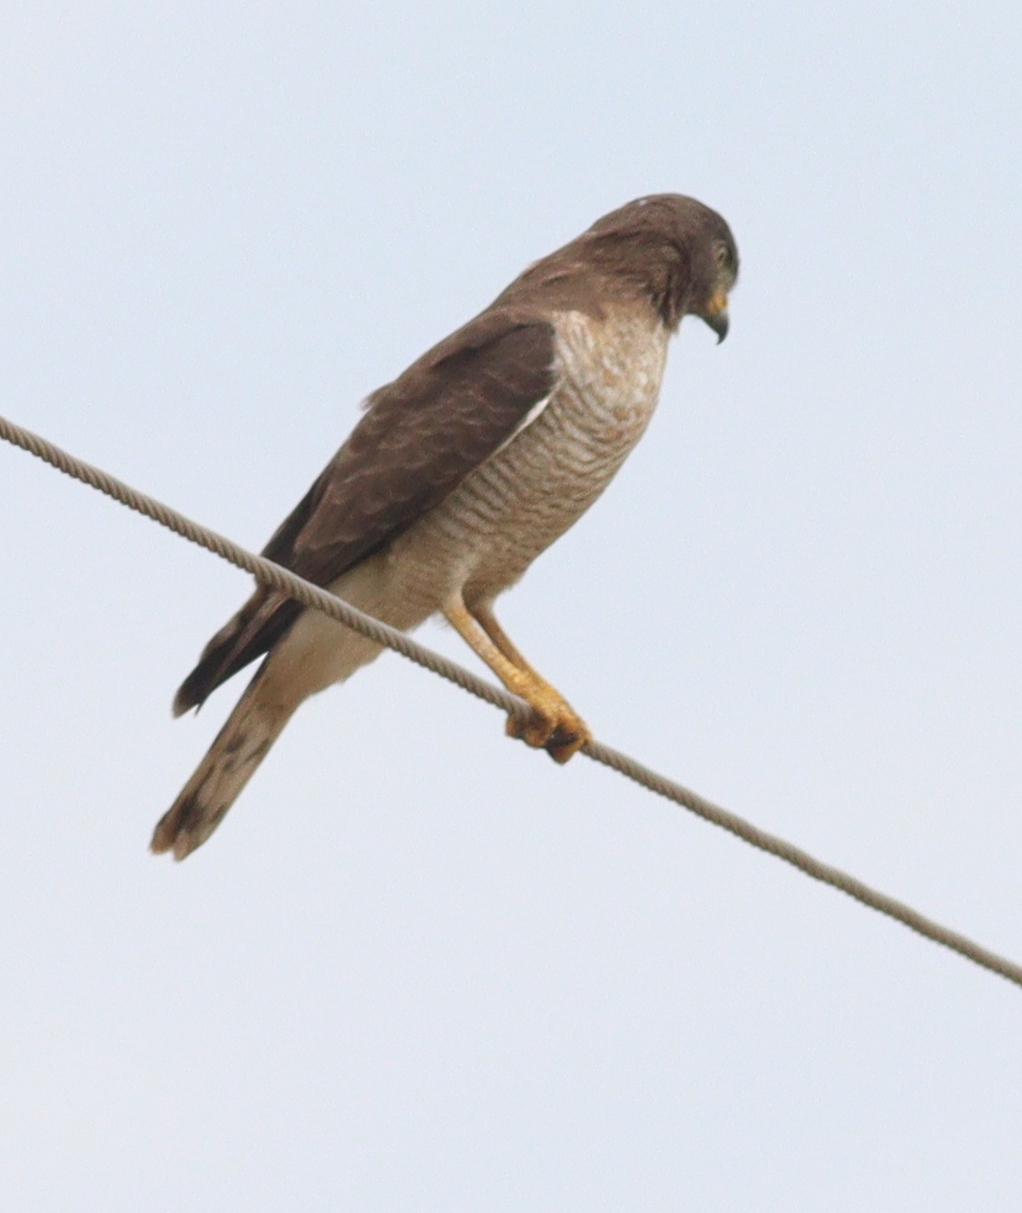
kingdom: Animalia
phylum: Chordata
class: Aves
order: Accipitriformes
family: Accipitridae
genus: Rupornis
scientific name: Rupornis magnirostris
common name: Roadside hawk
